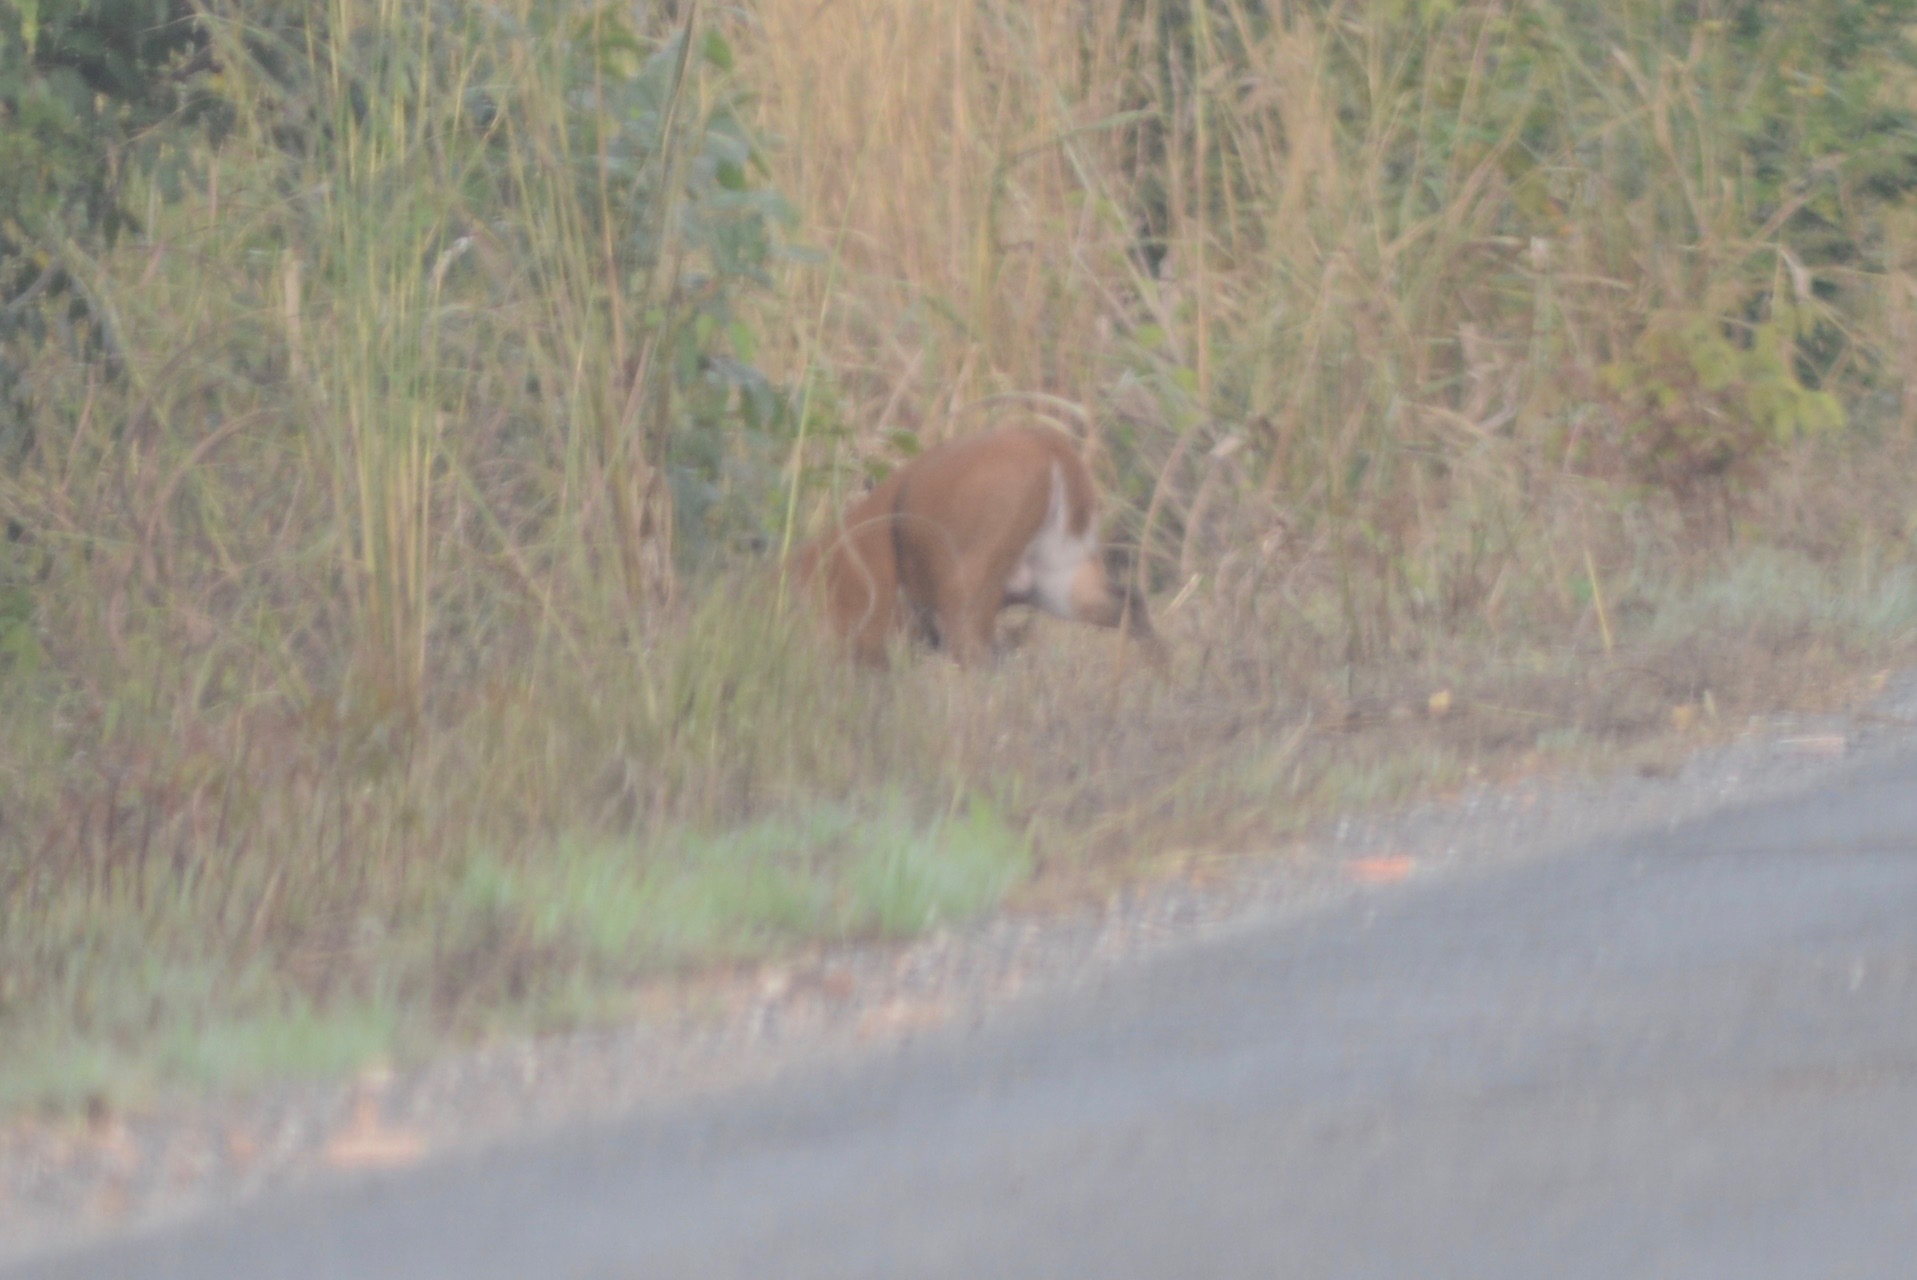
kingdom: Animalia
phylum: Chordata
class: Mammalia
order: Artiodactyla
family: Cervidae
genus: Mazama
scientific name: Mazama americana
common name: Red brocket
